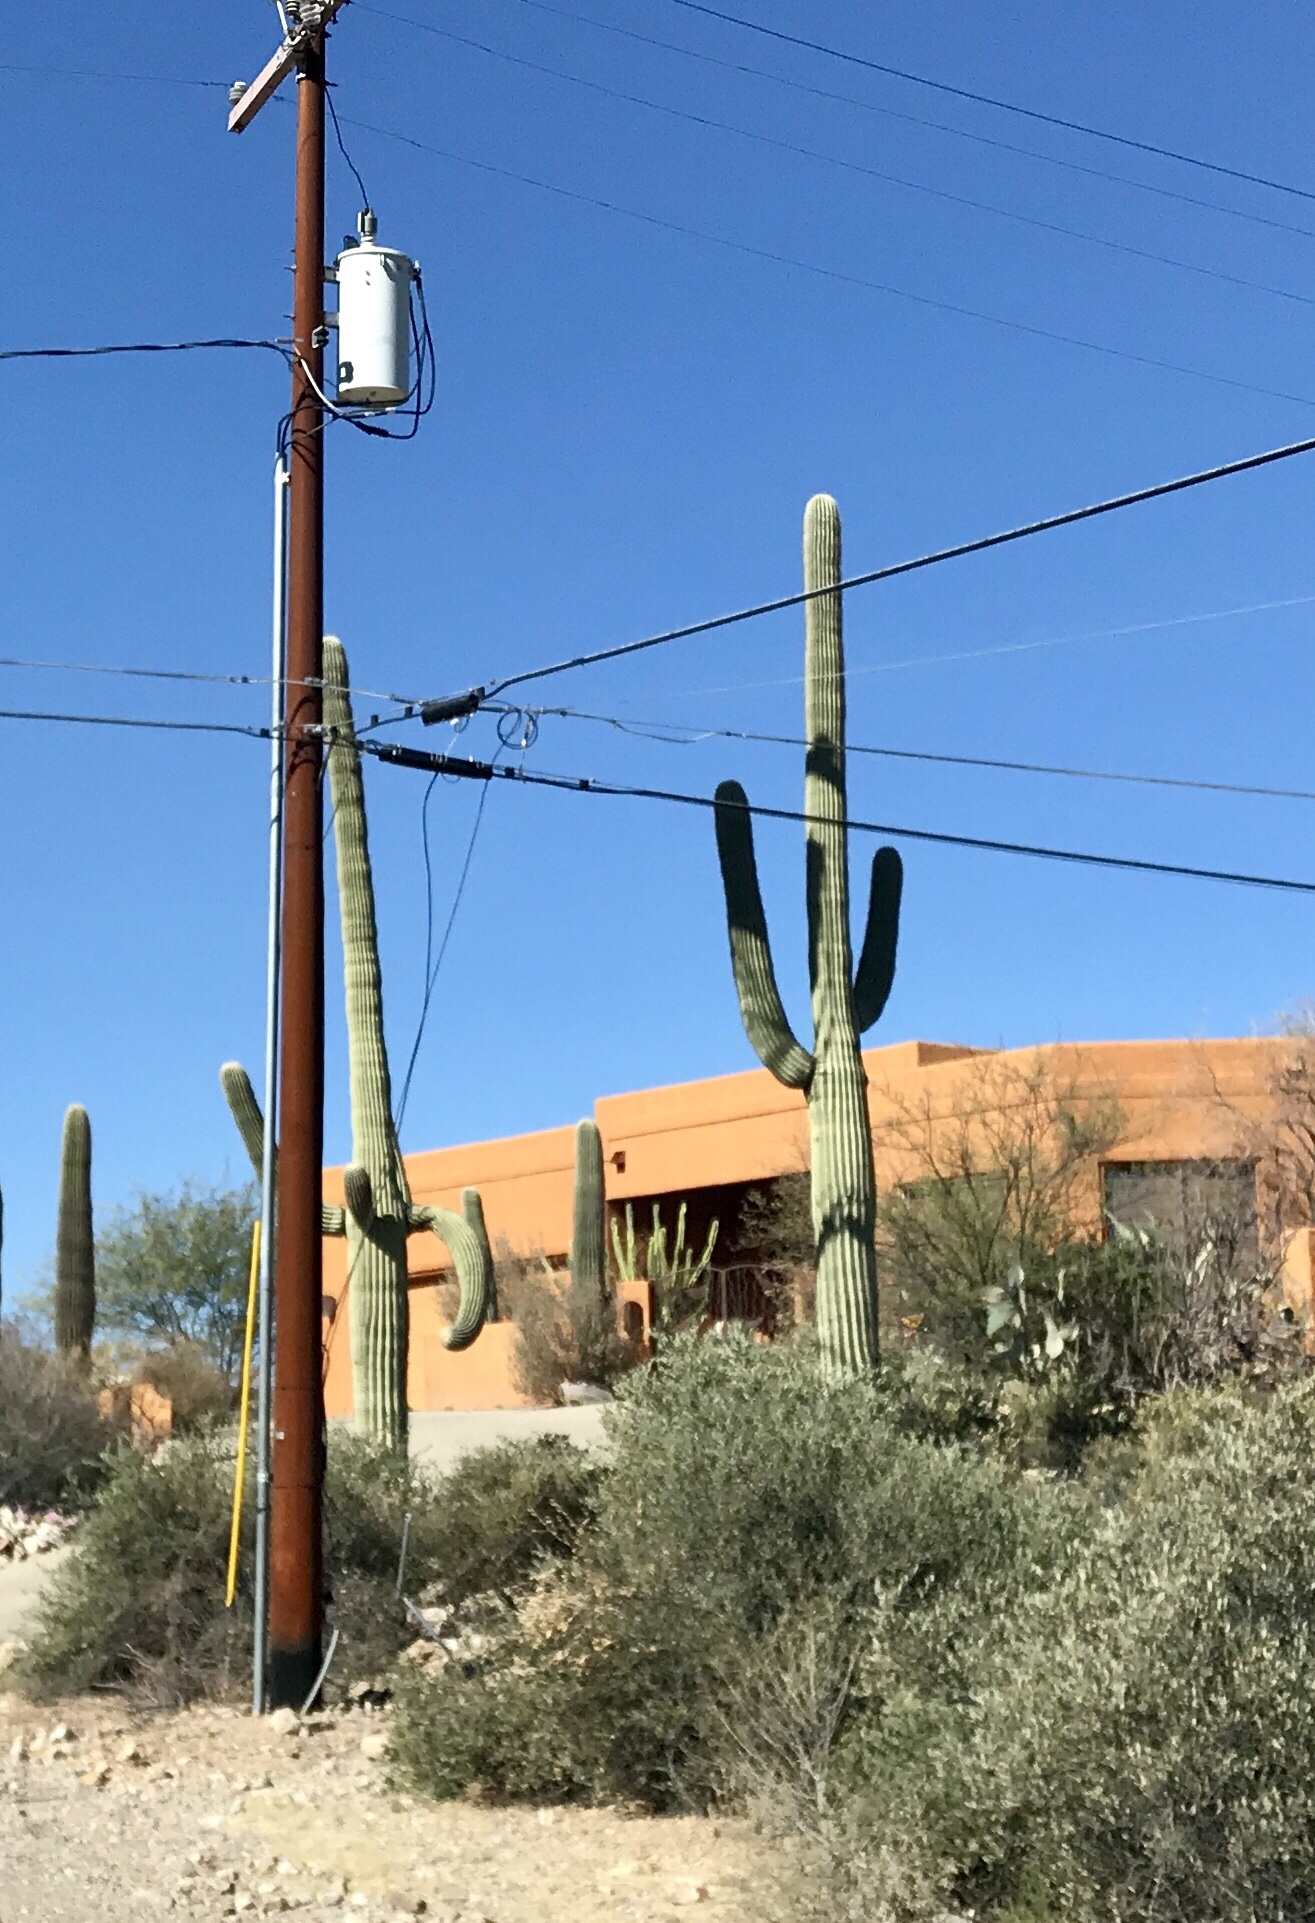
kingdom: Plantae
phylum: Tracheophyta
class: Magnoliopsida
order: Caryophyllales
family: Cactaceae
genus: Carnegiea
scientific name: Carnegiea gigantea
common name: Saguaro
